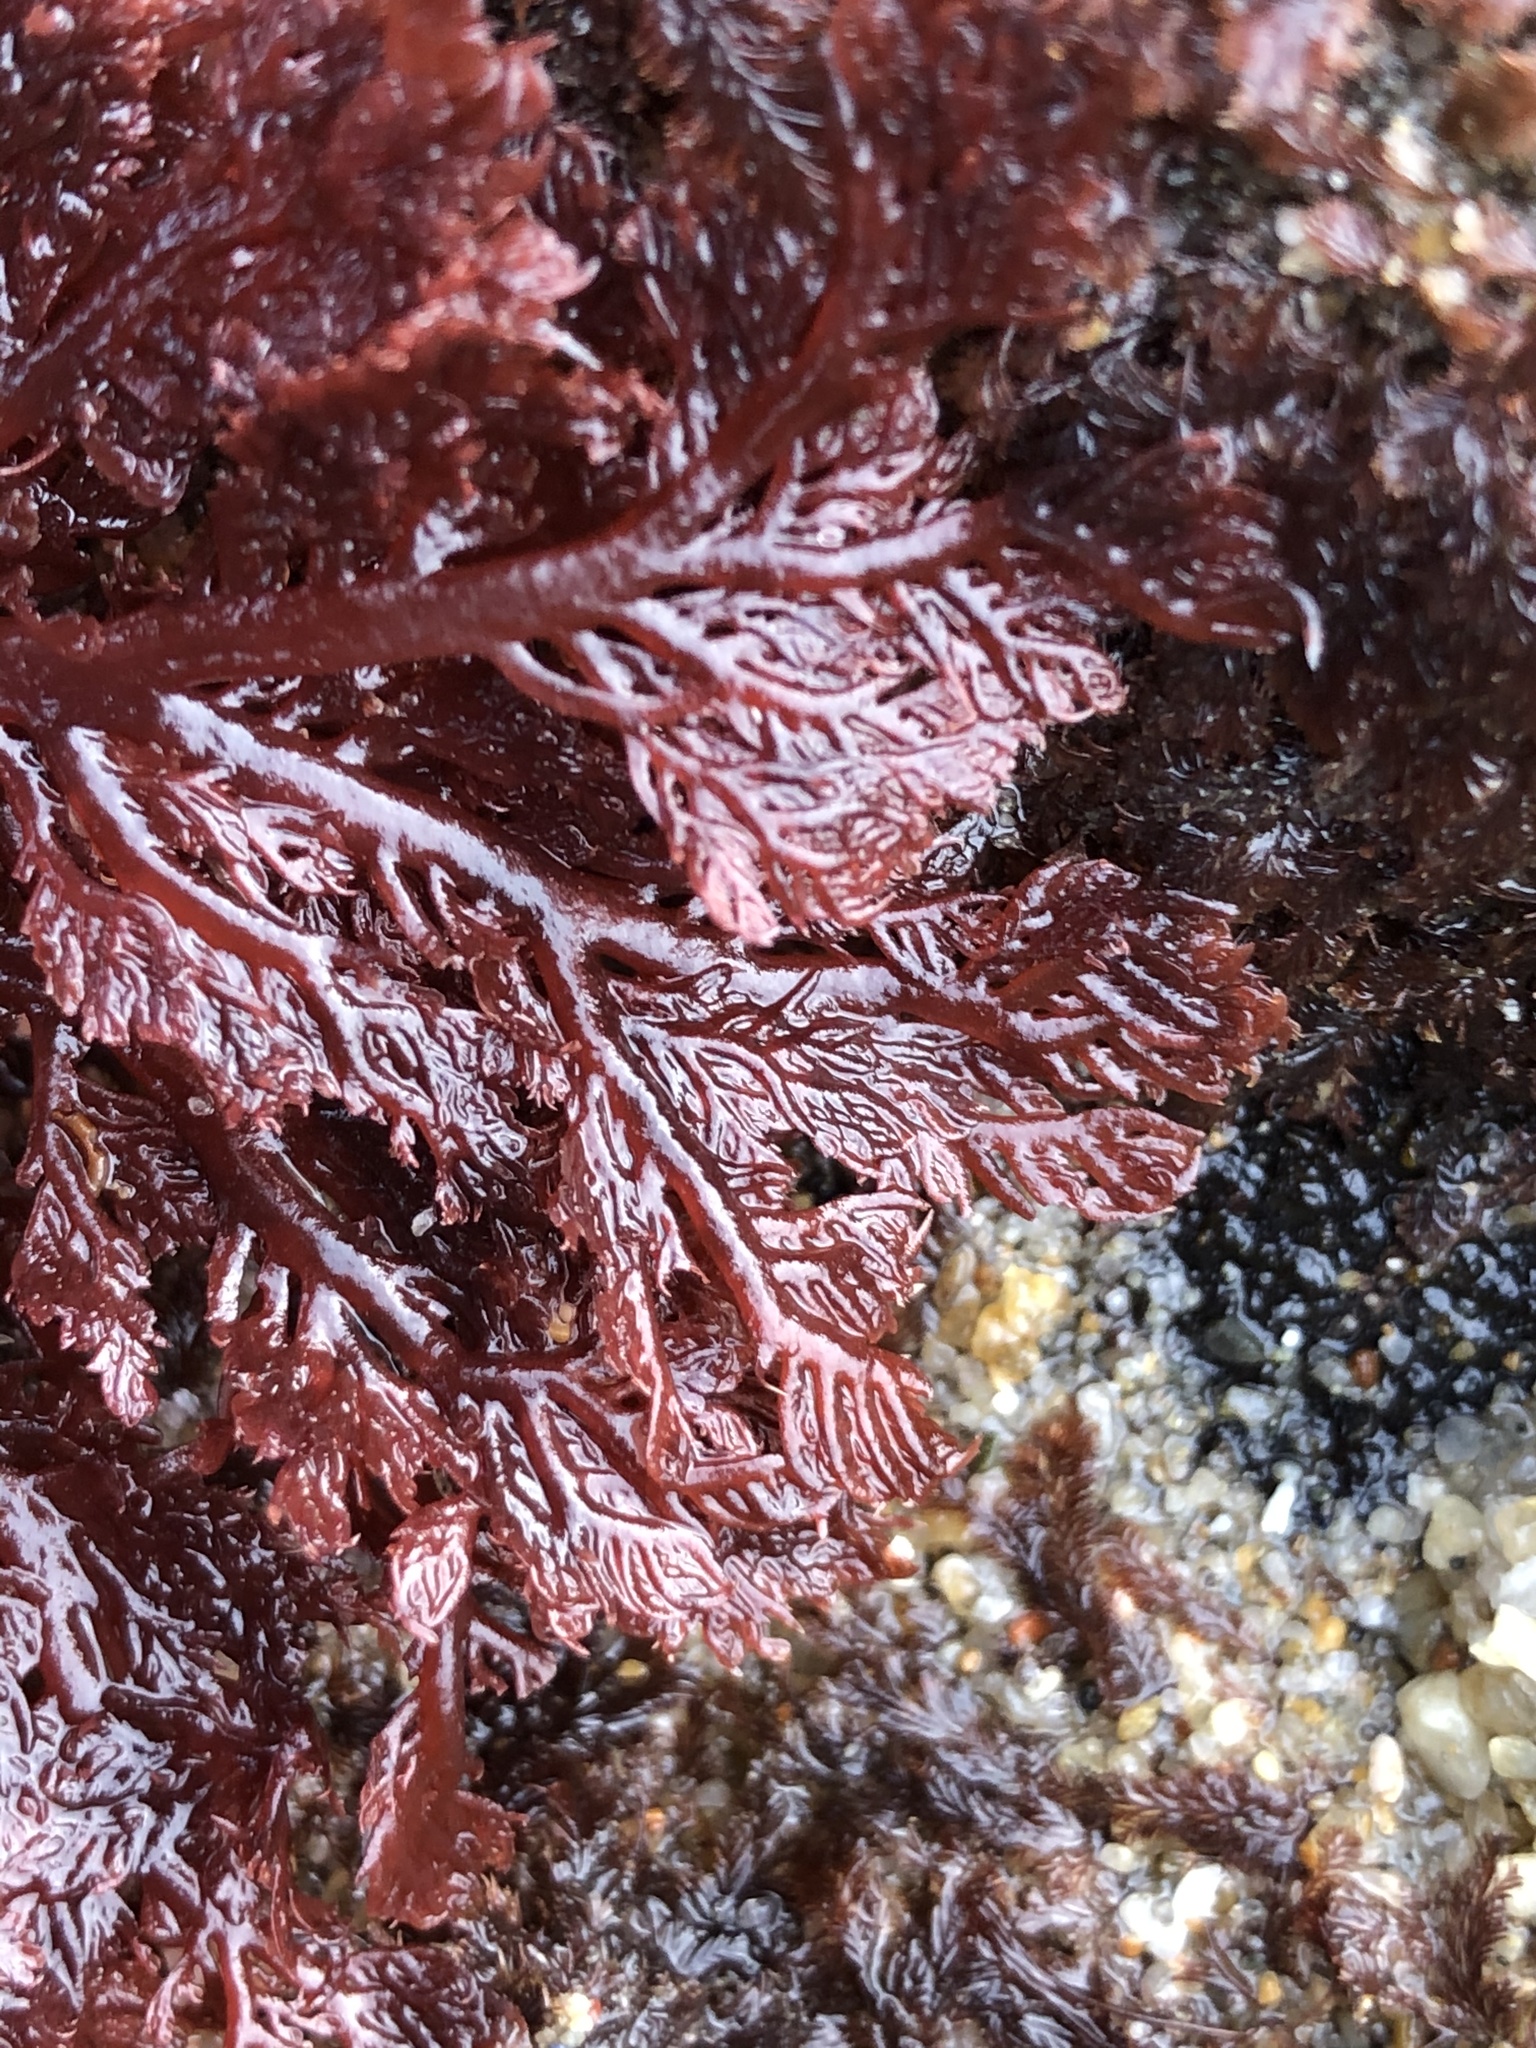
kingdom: Plantae
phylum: Rhodophyta
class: Florideophyceae
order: Plocamiales
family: Plocamiaceae
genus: Plocamium
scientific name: Plocamium cartilagineum
